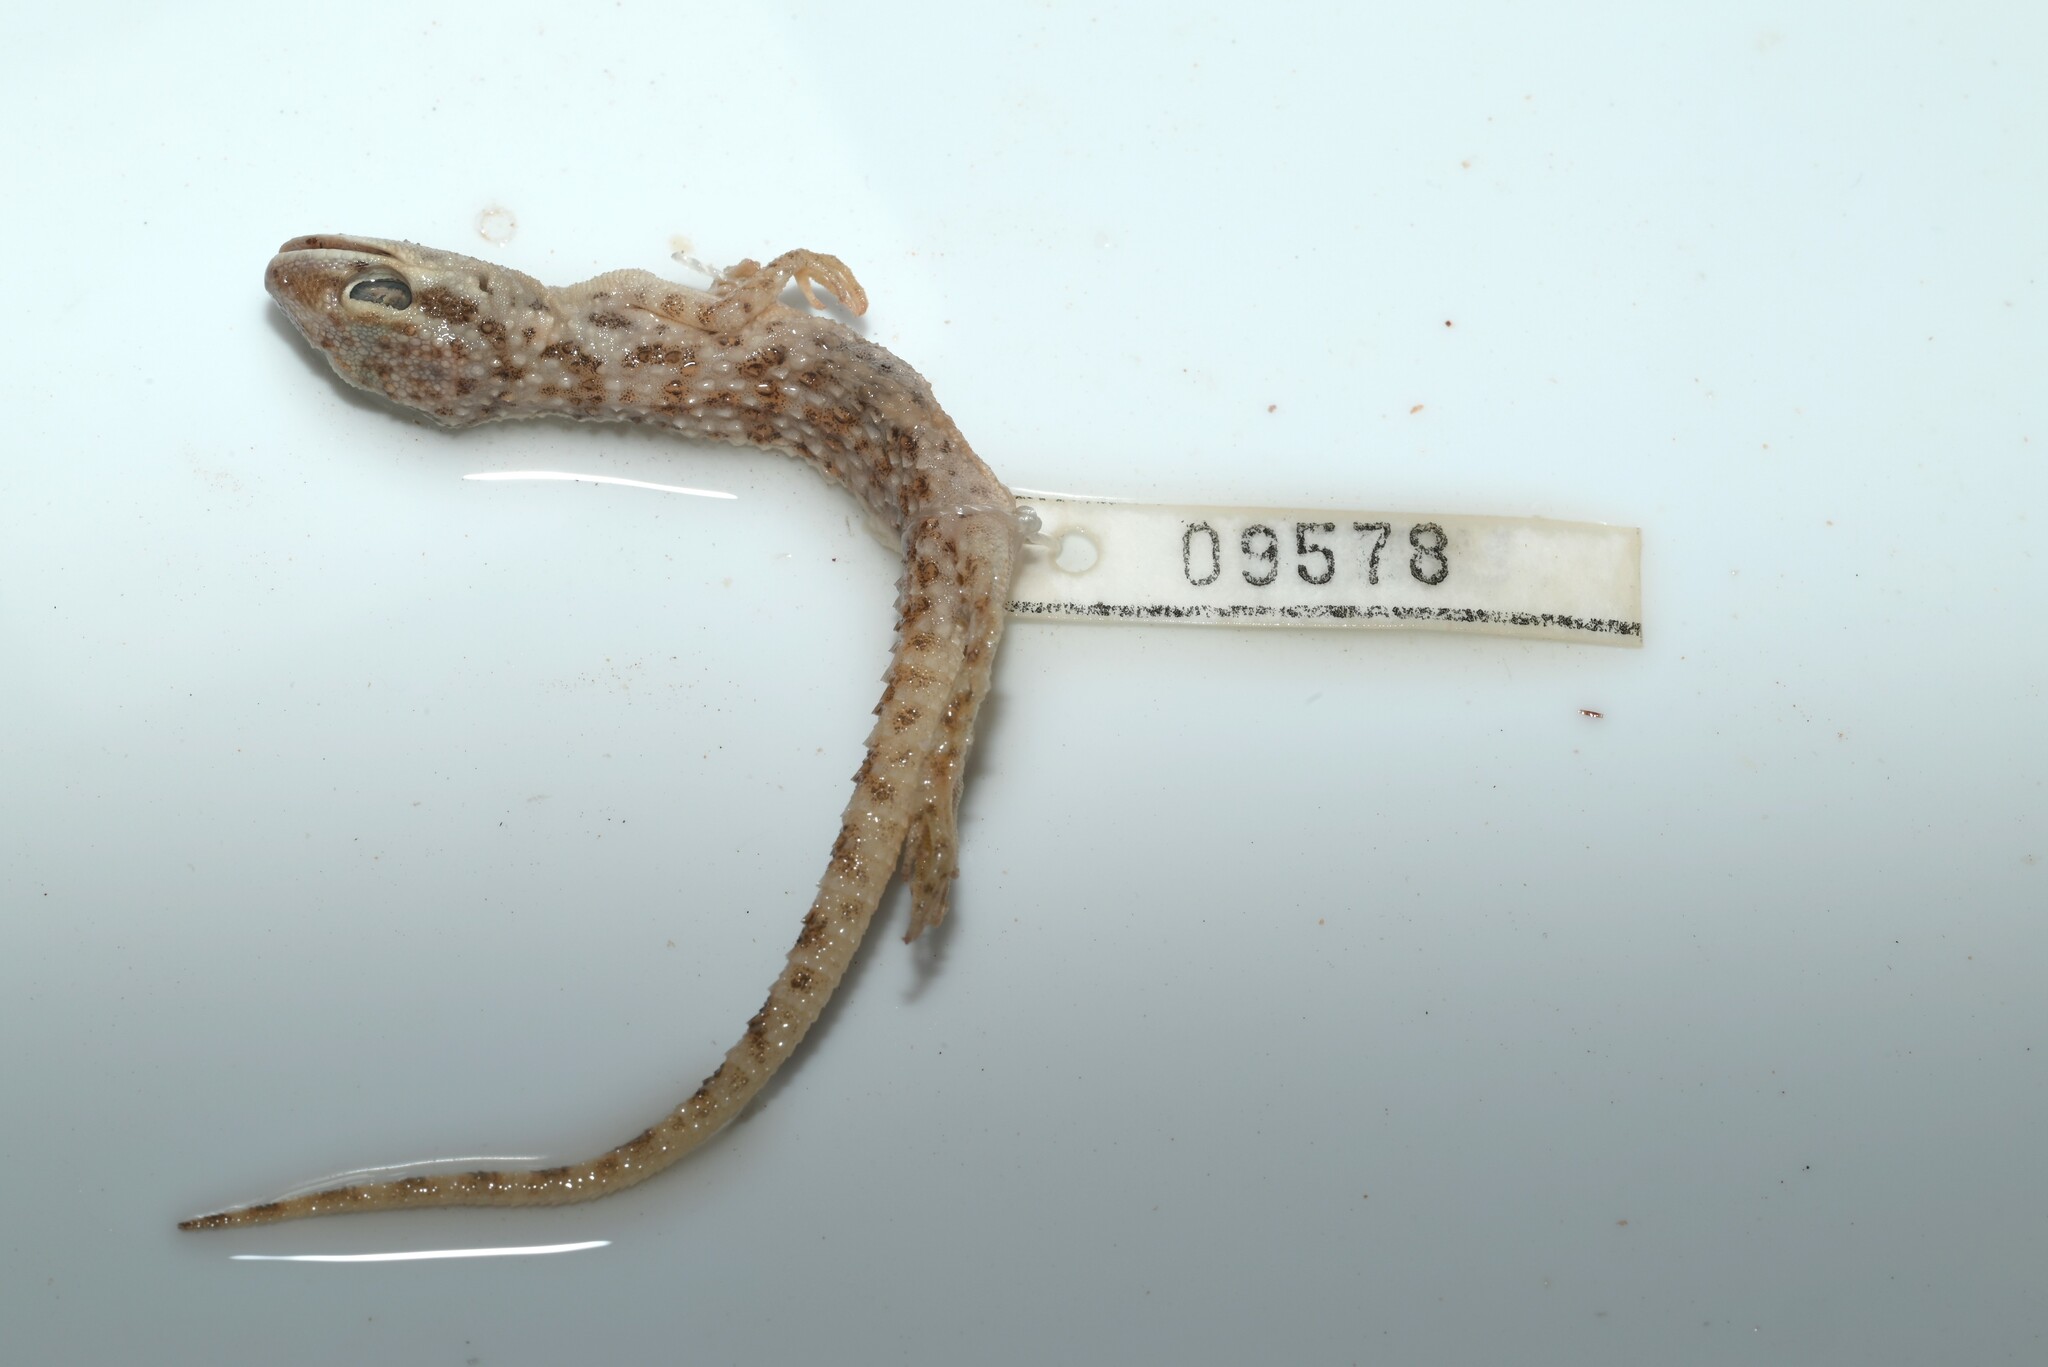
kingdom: Animalia
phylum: Chordata
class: Squamata
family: Gekkonidae
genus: Bunopus
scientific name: Bunopus tuberculatus
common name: Southern tuberculated gecko
